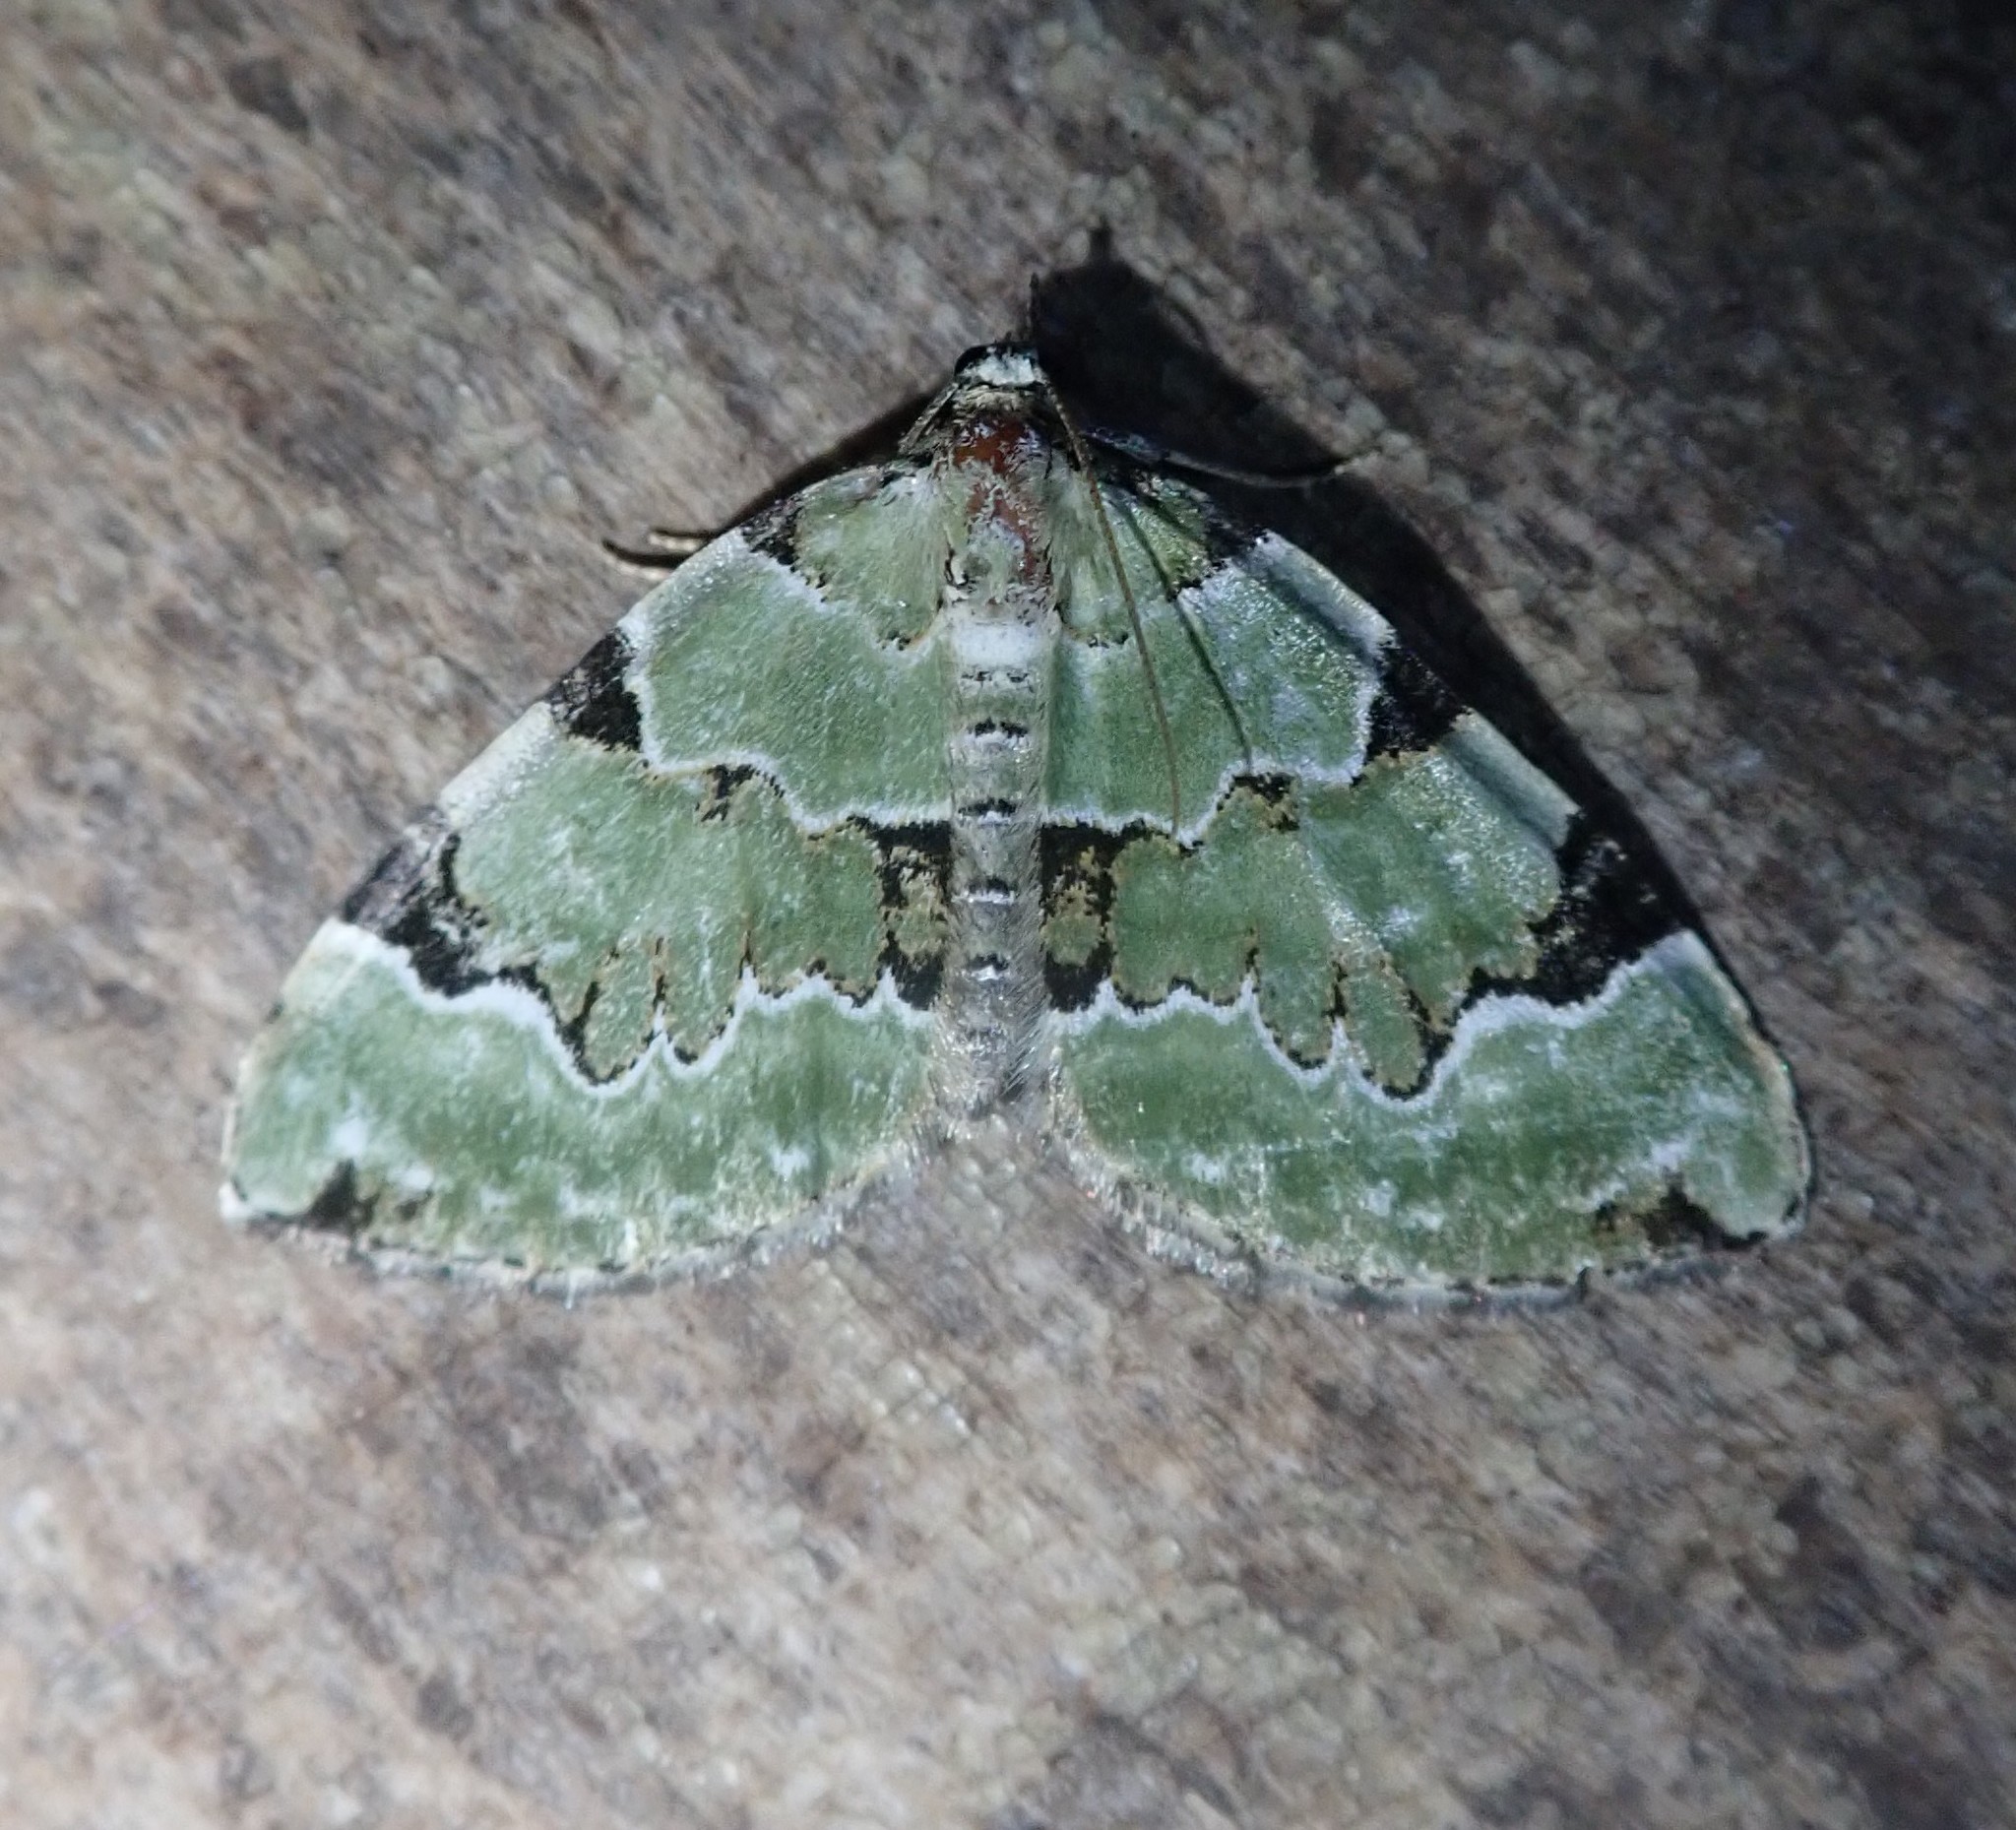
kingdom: Animalia
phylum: Arthropoda
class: Insecta
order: Lepidoptera
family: Geometridae
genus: Colostygia
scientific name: Colostygia pectinataria
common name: Green carpet
